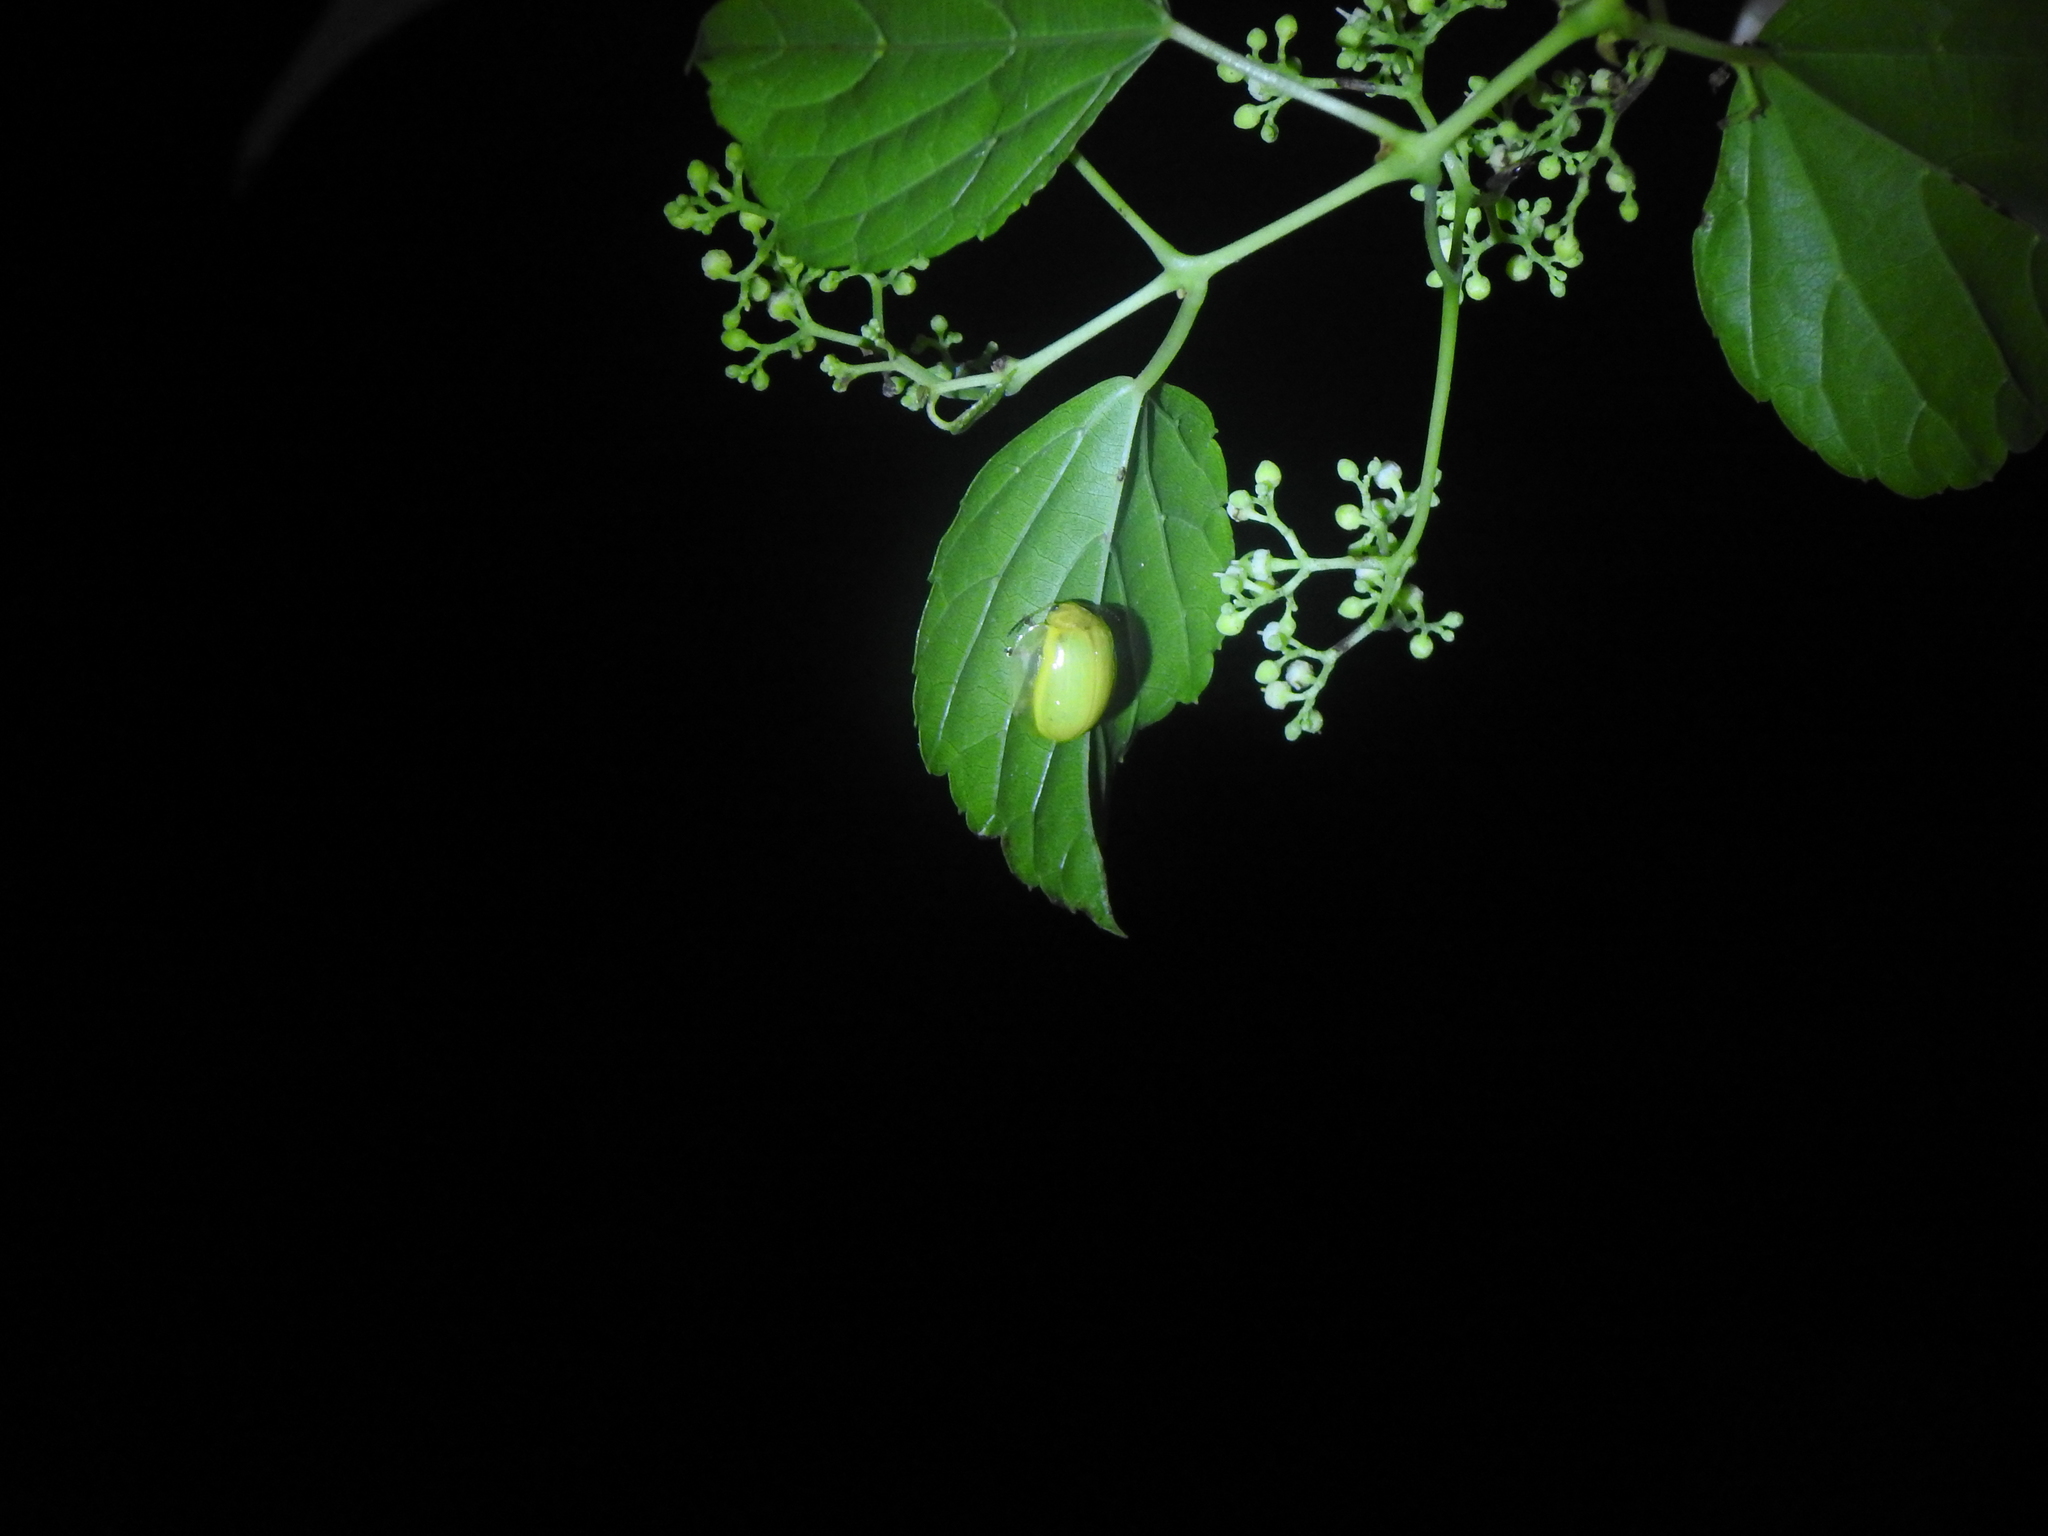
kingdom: Animalia
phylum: Mollusca
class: Gastropoda
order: Architaenioglossa
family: Cyclophoridae
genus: Leptopoma
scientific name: Leptopoma nitidum
